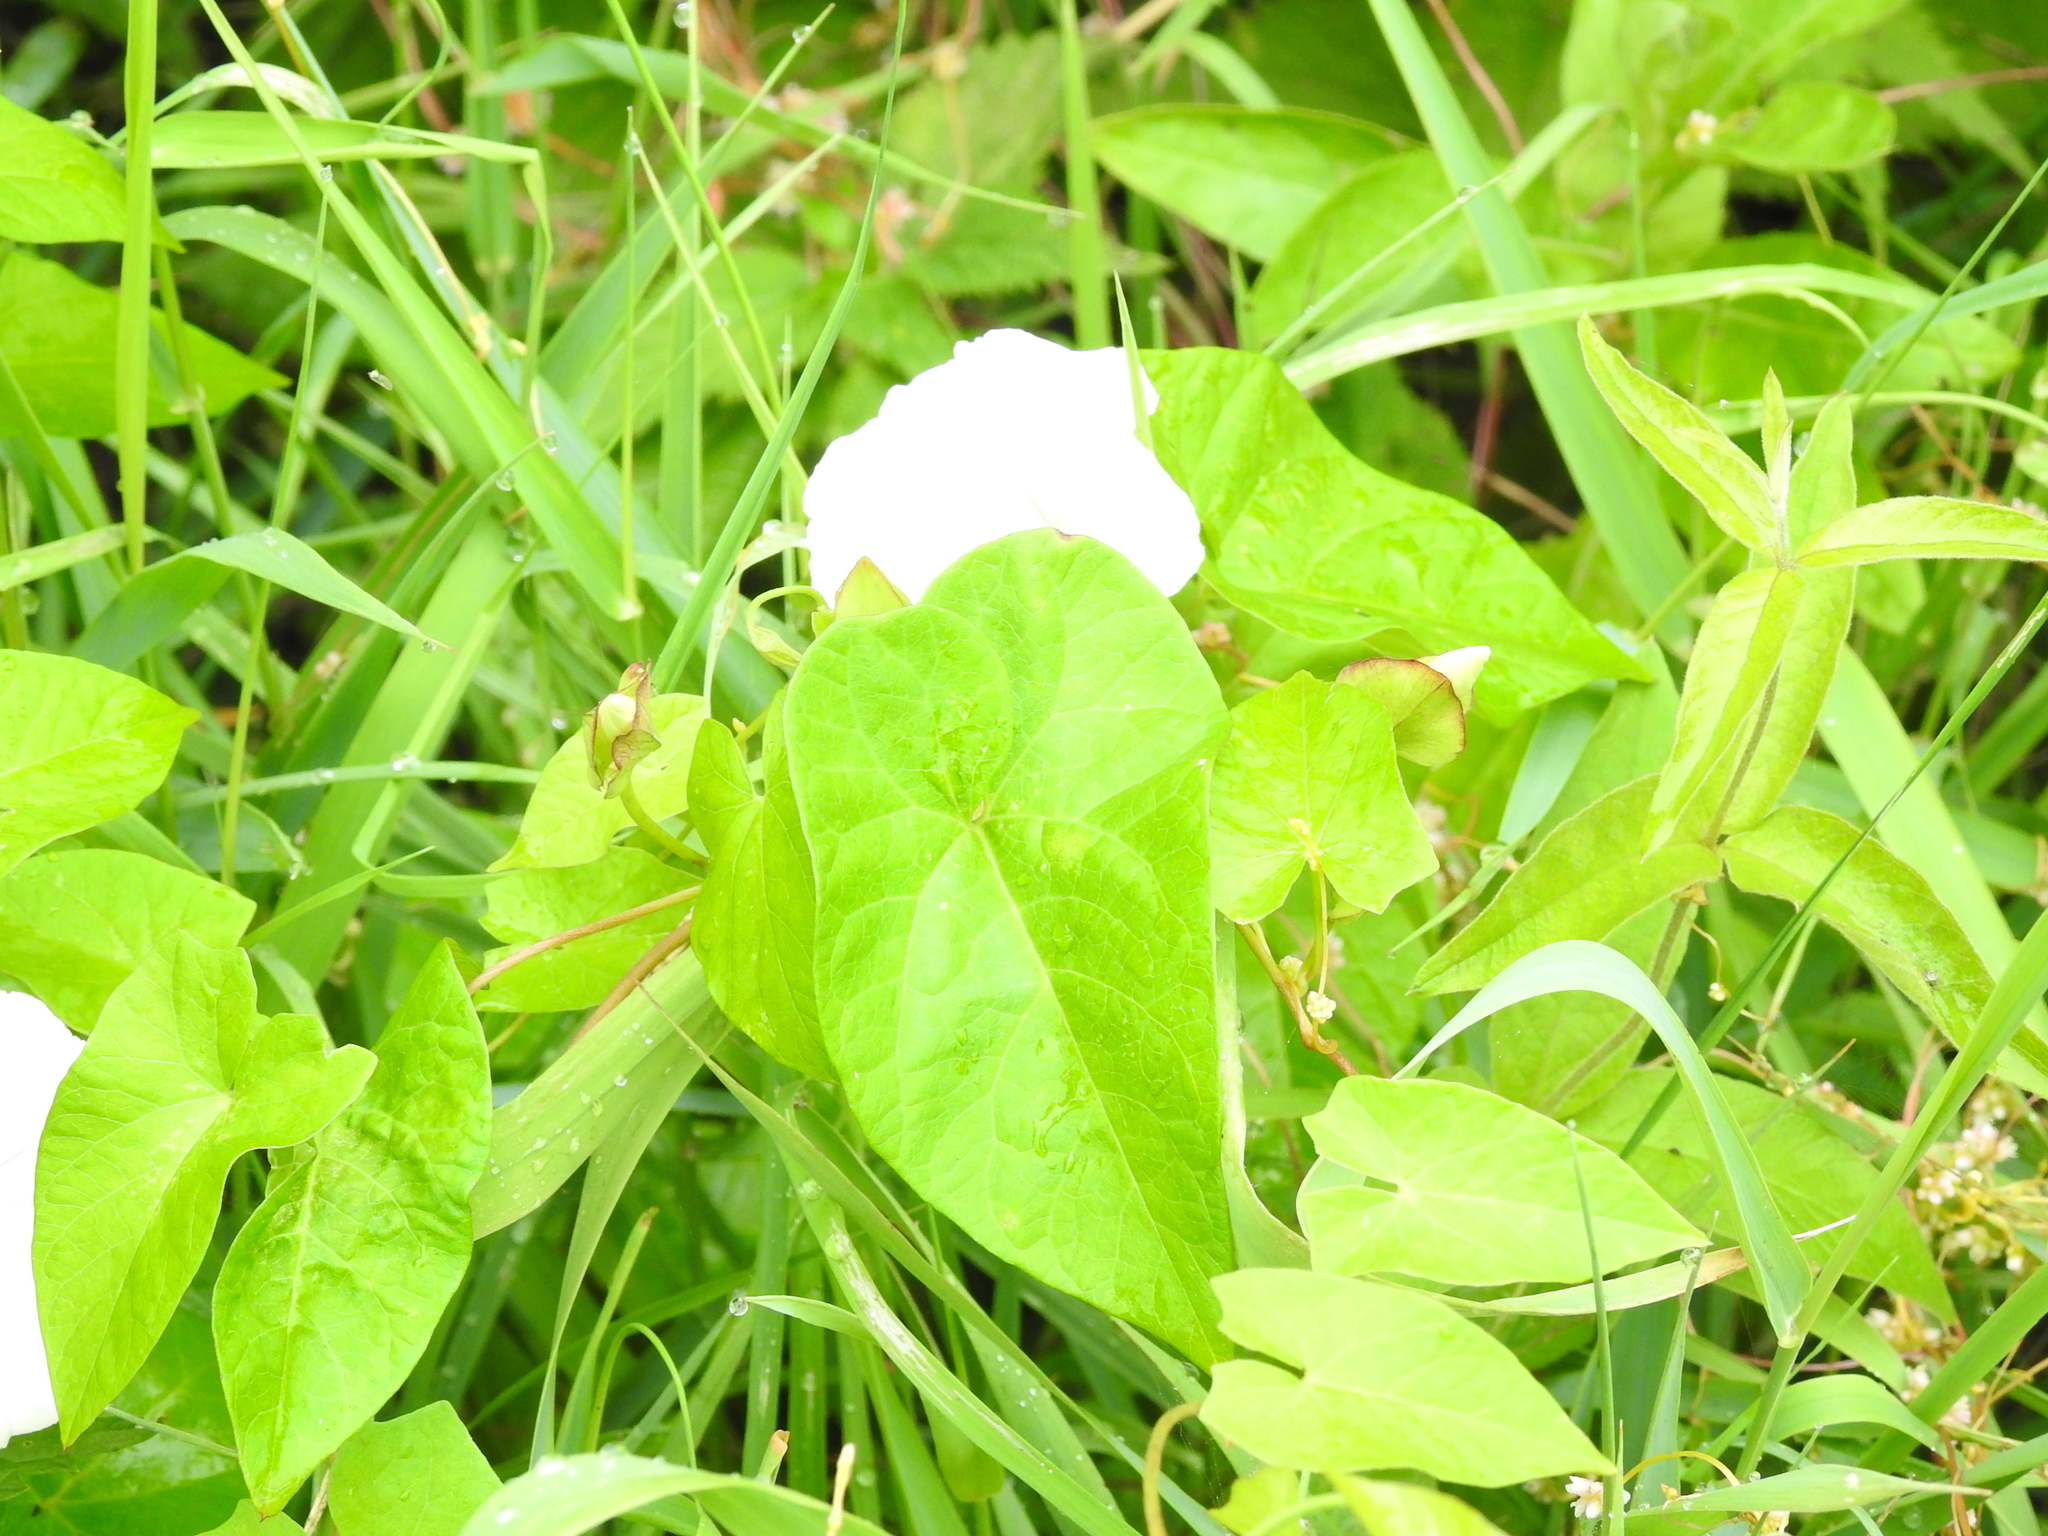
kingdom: Plantae
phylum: Tracheophyta
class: Magnoliopsida
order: Solanales
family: Convolvulaceae
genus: Calystegia
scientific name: Calystegia sepium
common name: Hedge bindweed
